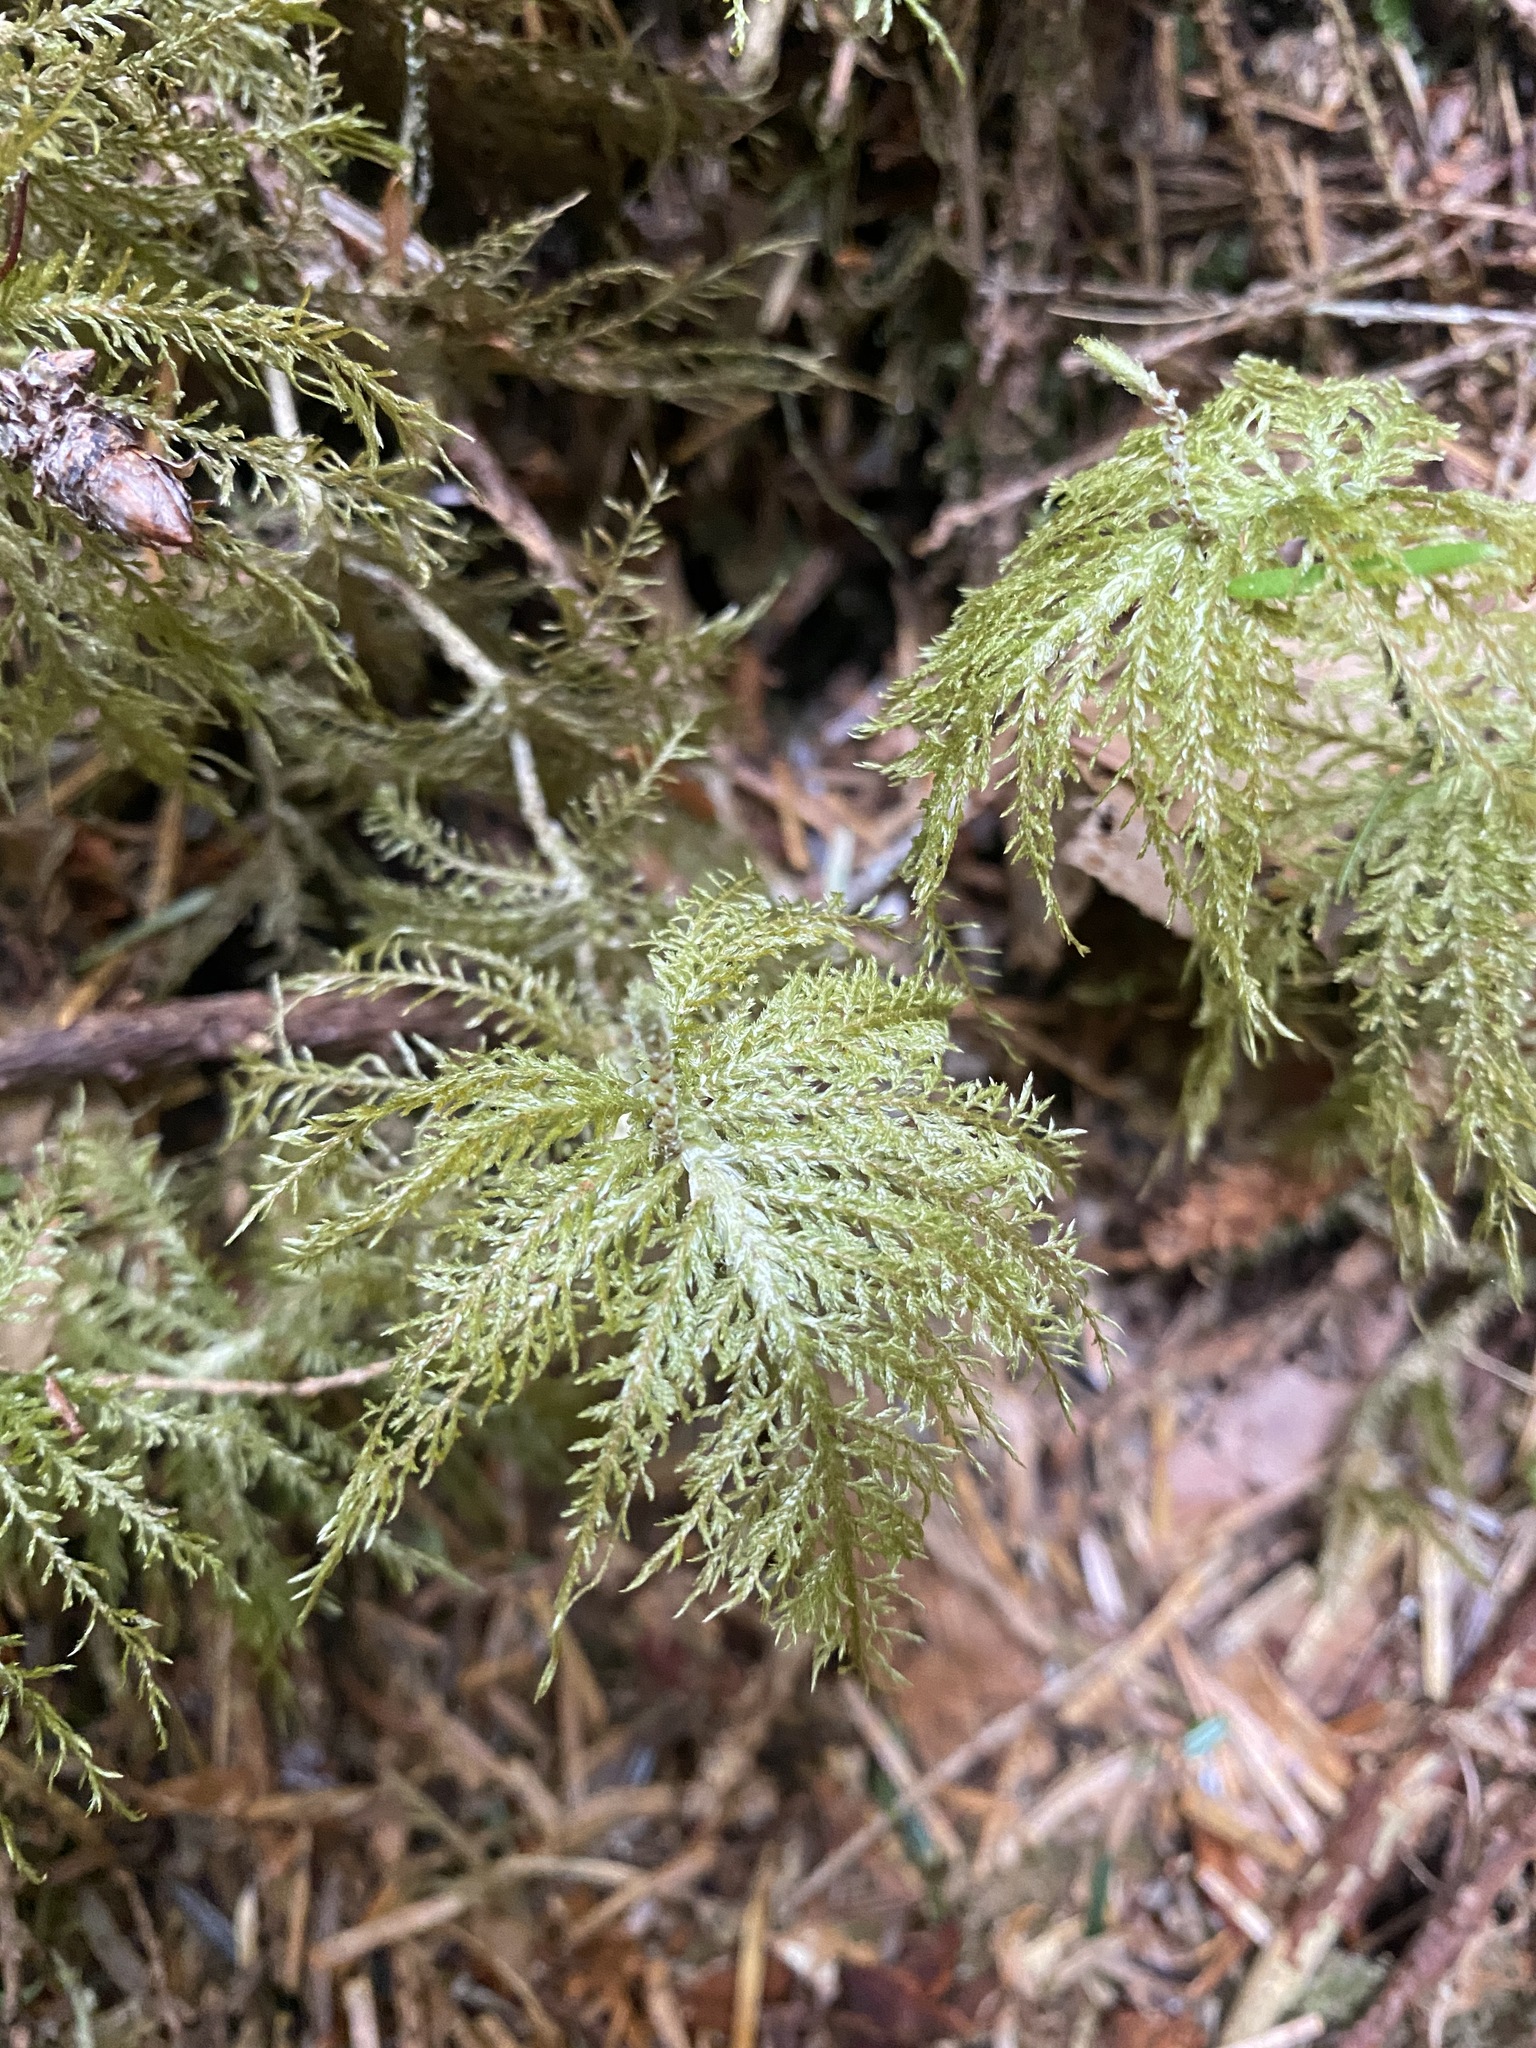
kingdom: Plantae
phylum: Bryophyta
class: Bryopsida
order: Hypnales
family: Hylocomiaceae
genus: Hylocomium
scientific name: Hylocomium splendens
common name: Stairstep moss
